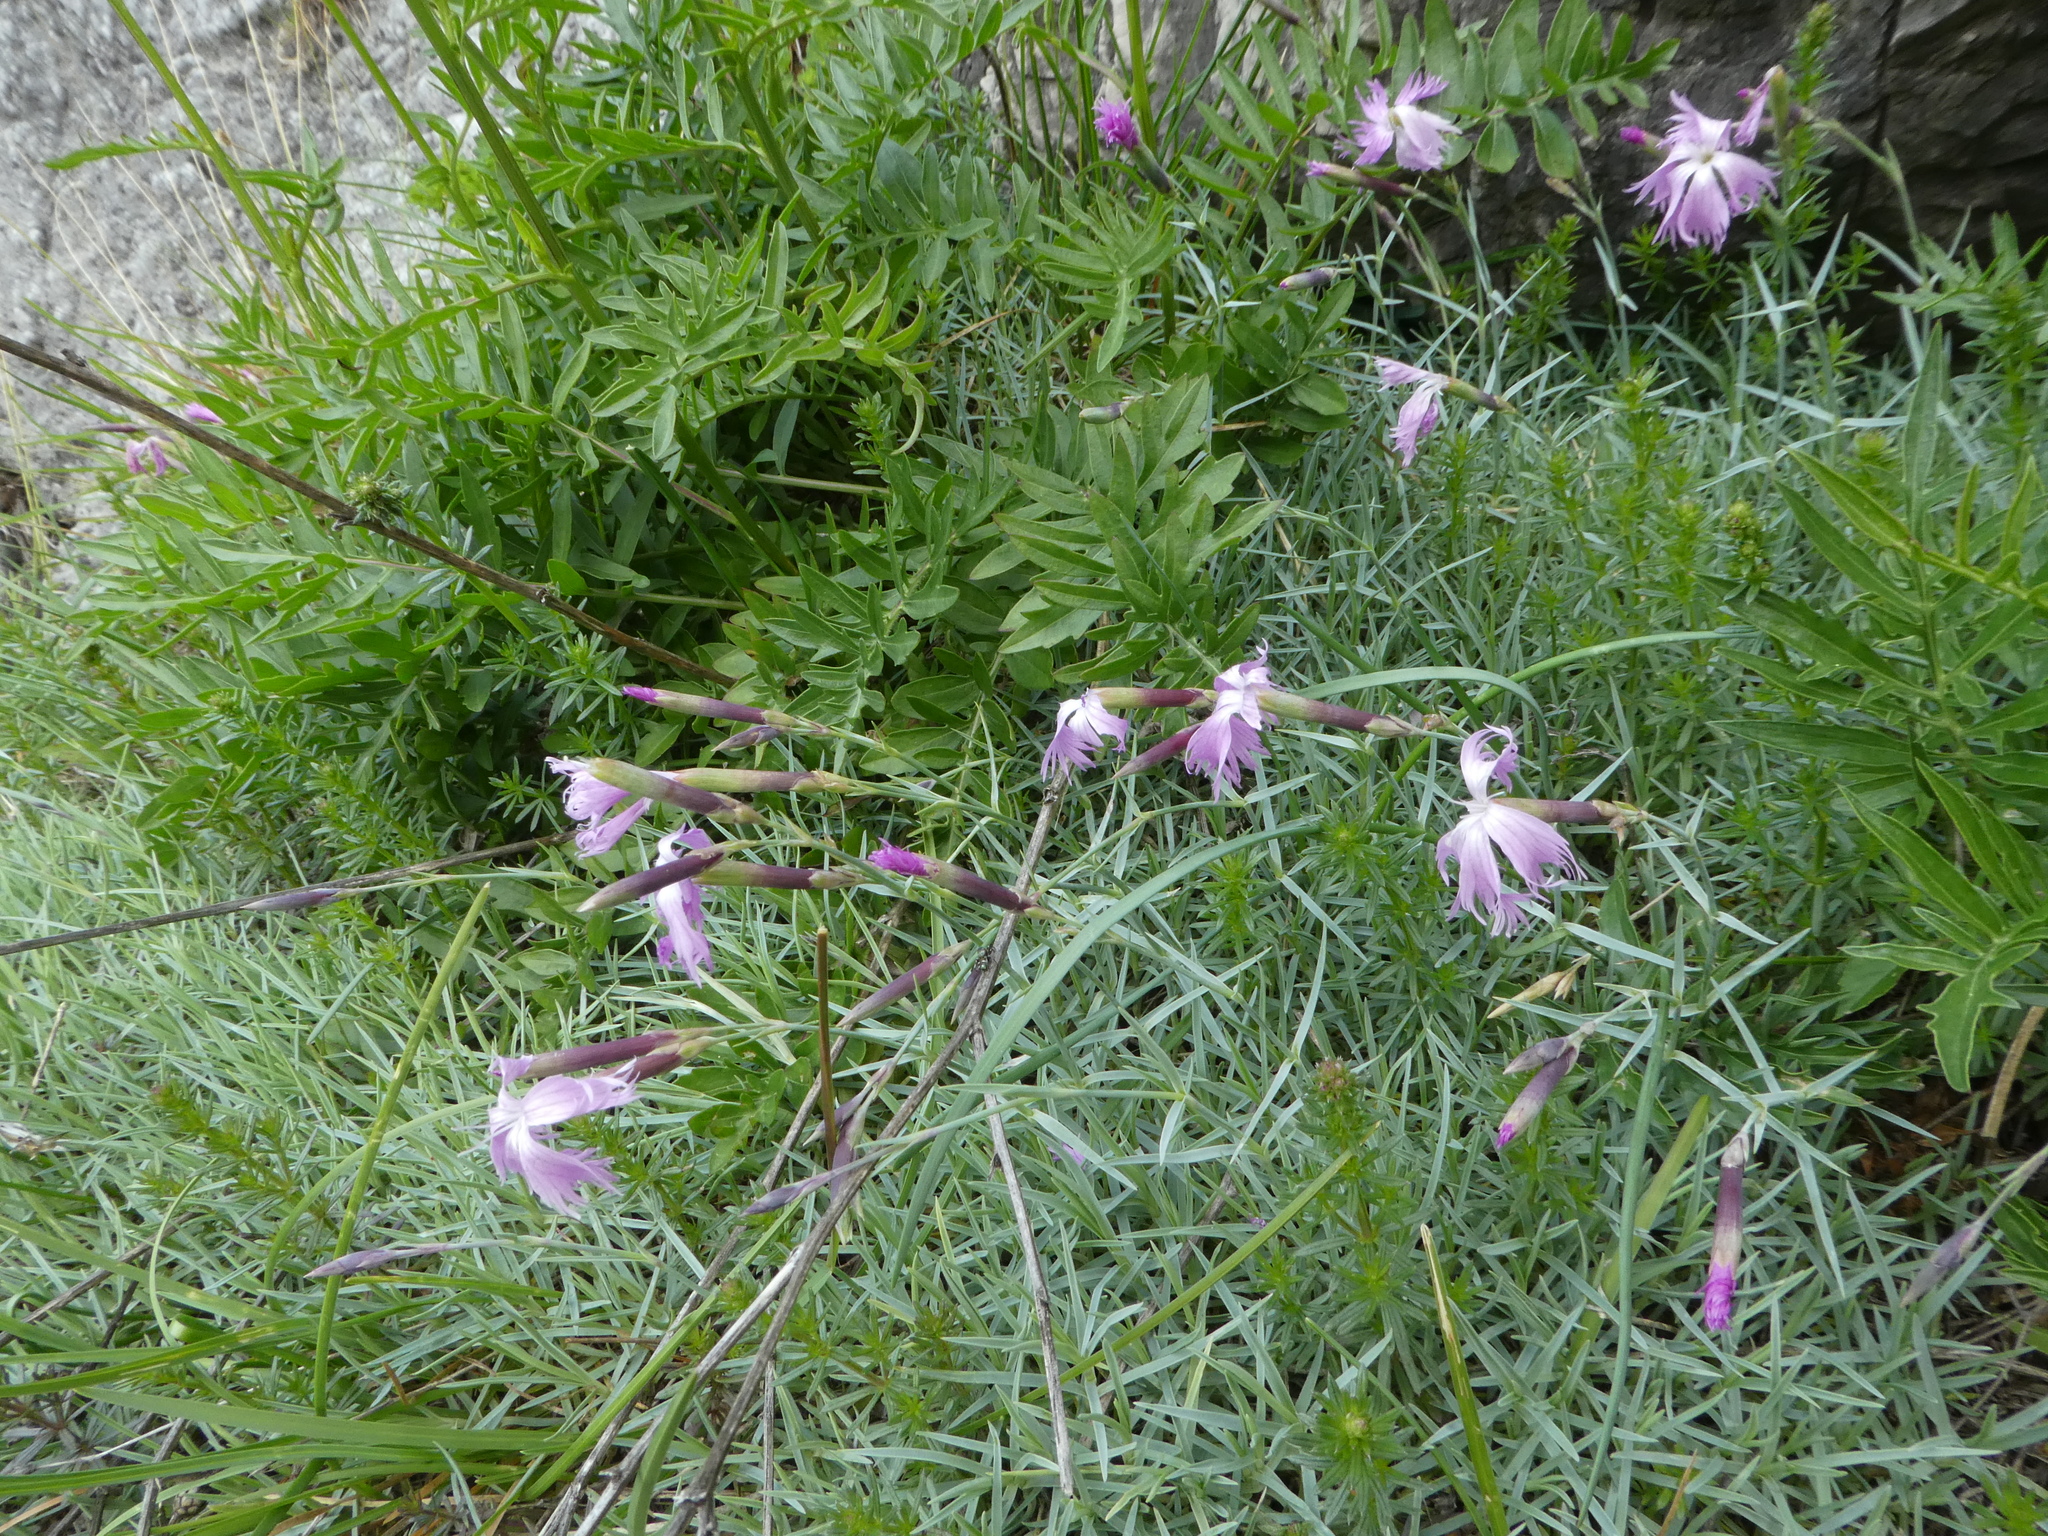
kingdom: Plantae
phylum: Tracheophyta
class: Magnoliopsida
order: Caryophyllales
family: Caryophyllaceae
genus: Dianthus
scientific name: Dianthus plumarius
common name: Pink
